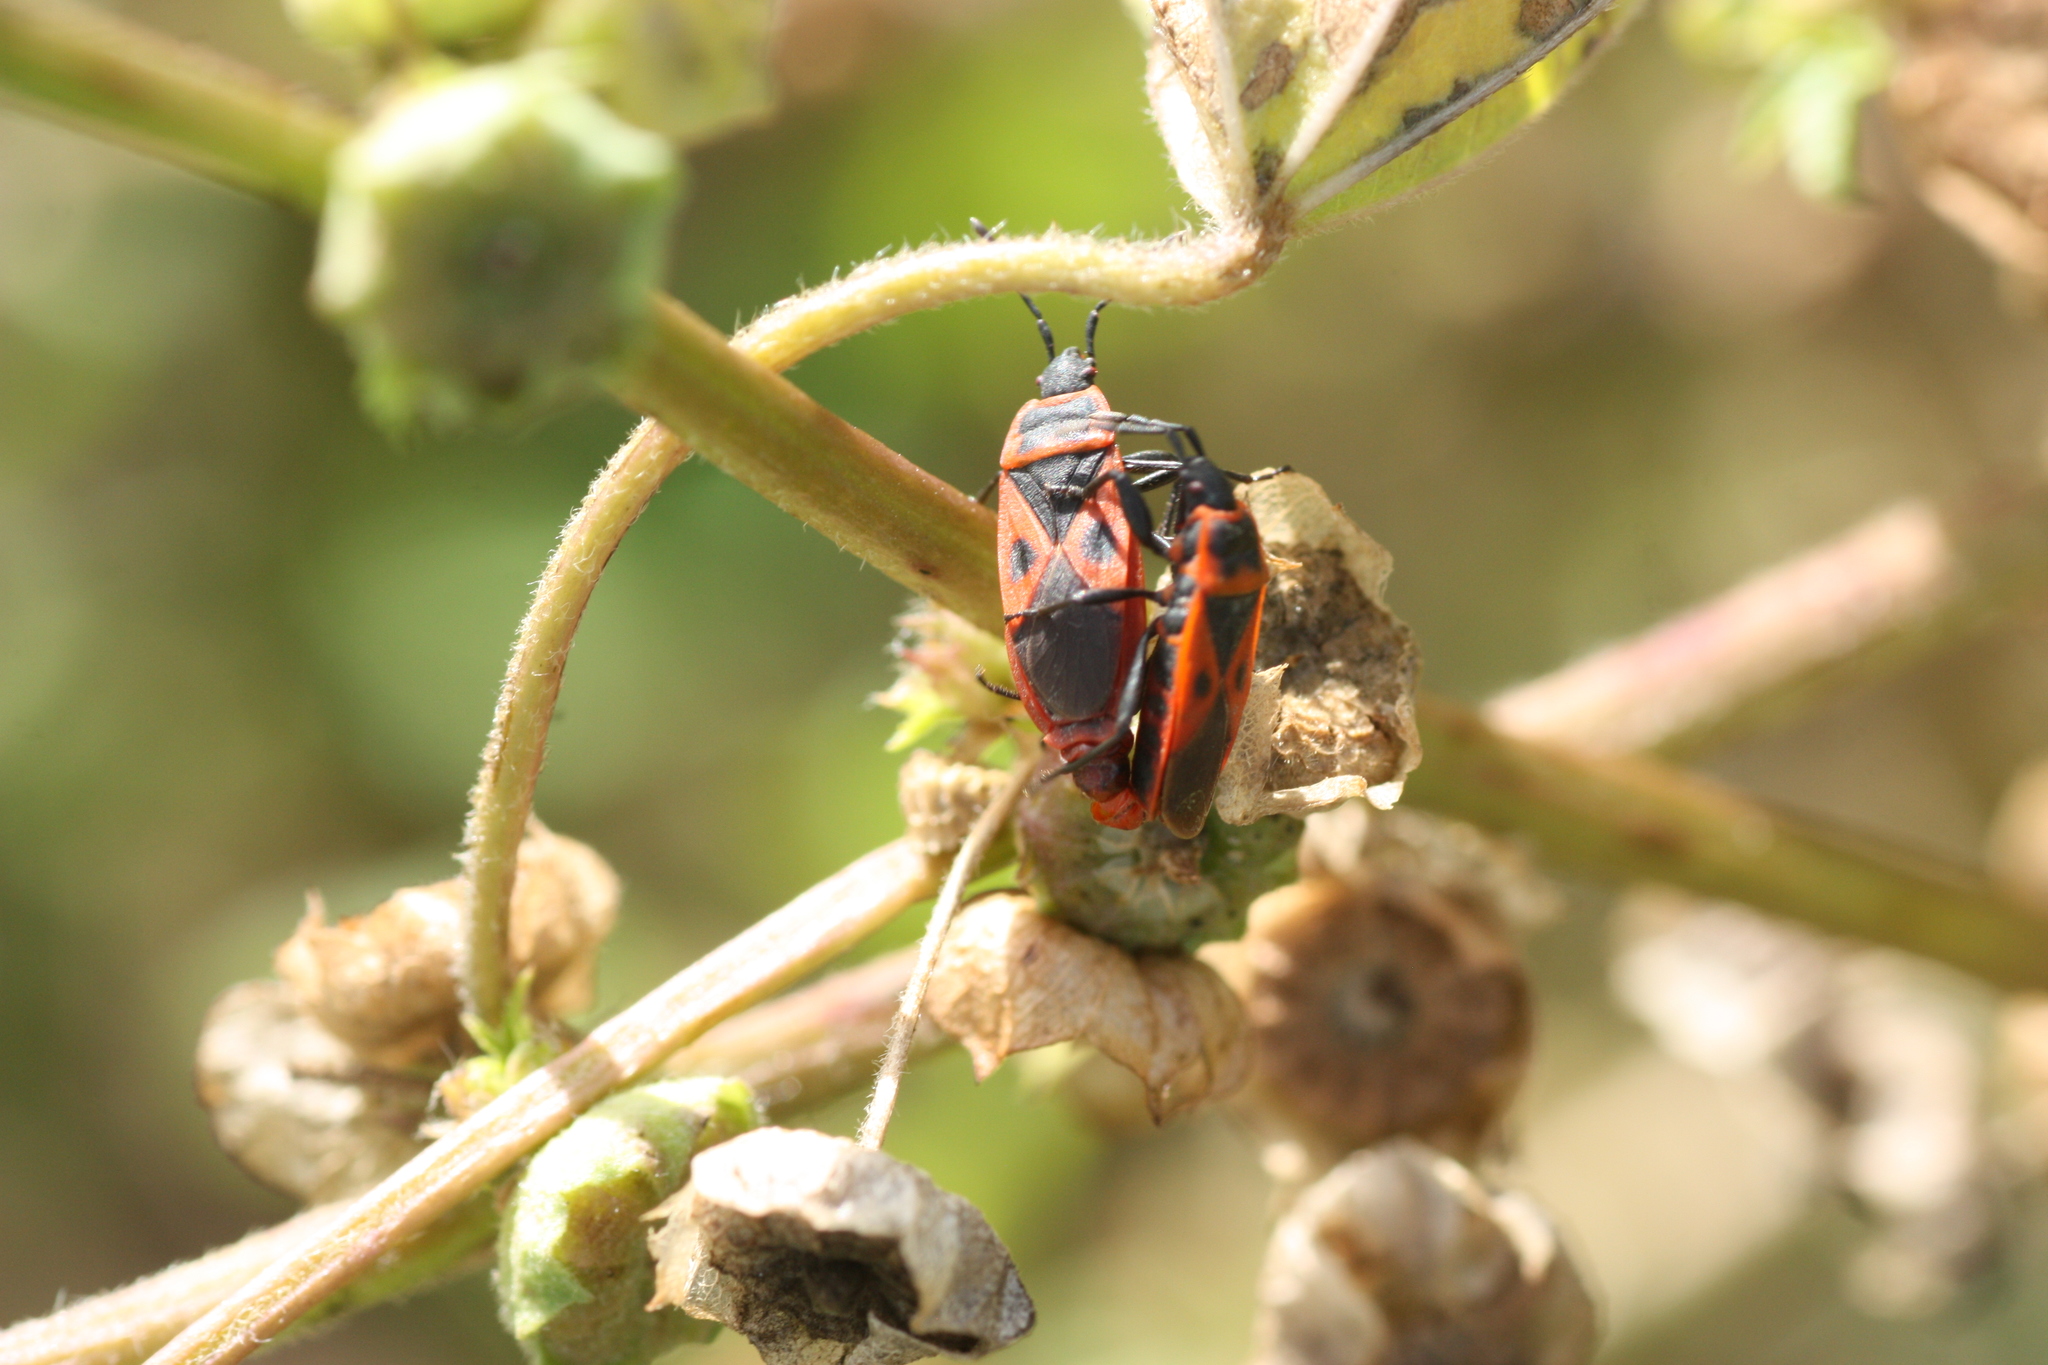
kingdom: Animalia
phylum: Arthropoda
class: Insecta
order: Hemiptera
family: Pyrrhocoridae
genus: Scantius
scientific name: Scantius aegyptius
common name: Red bug
